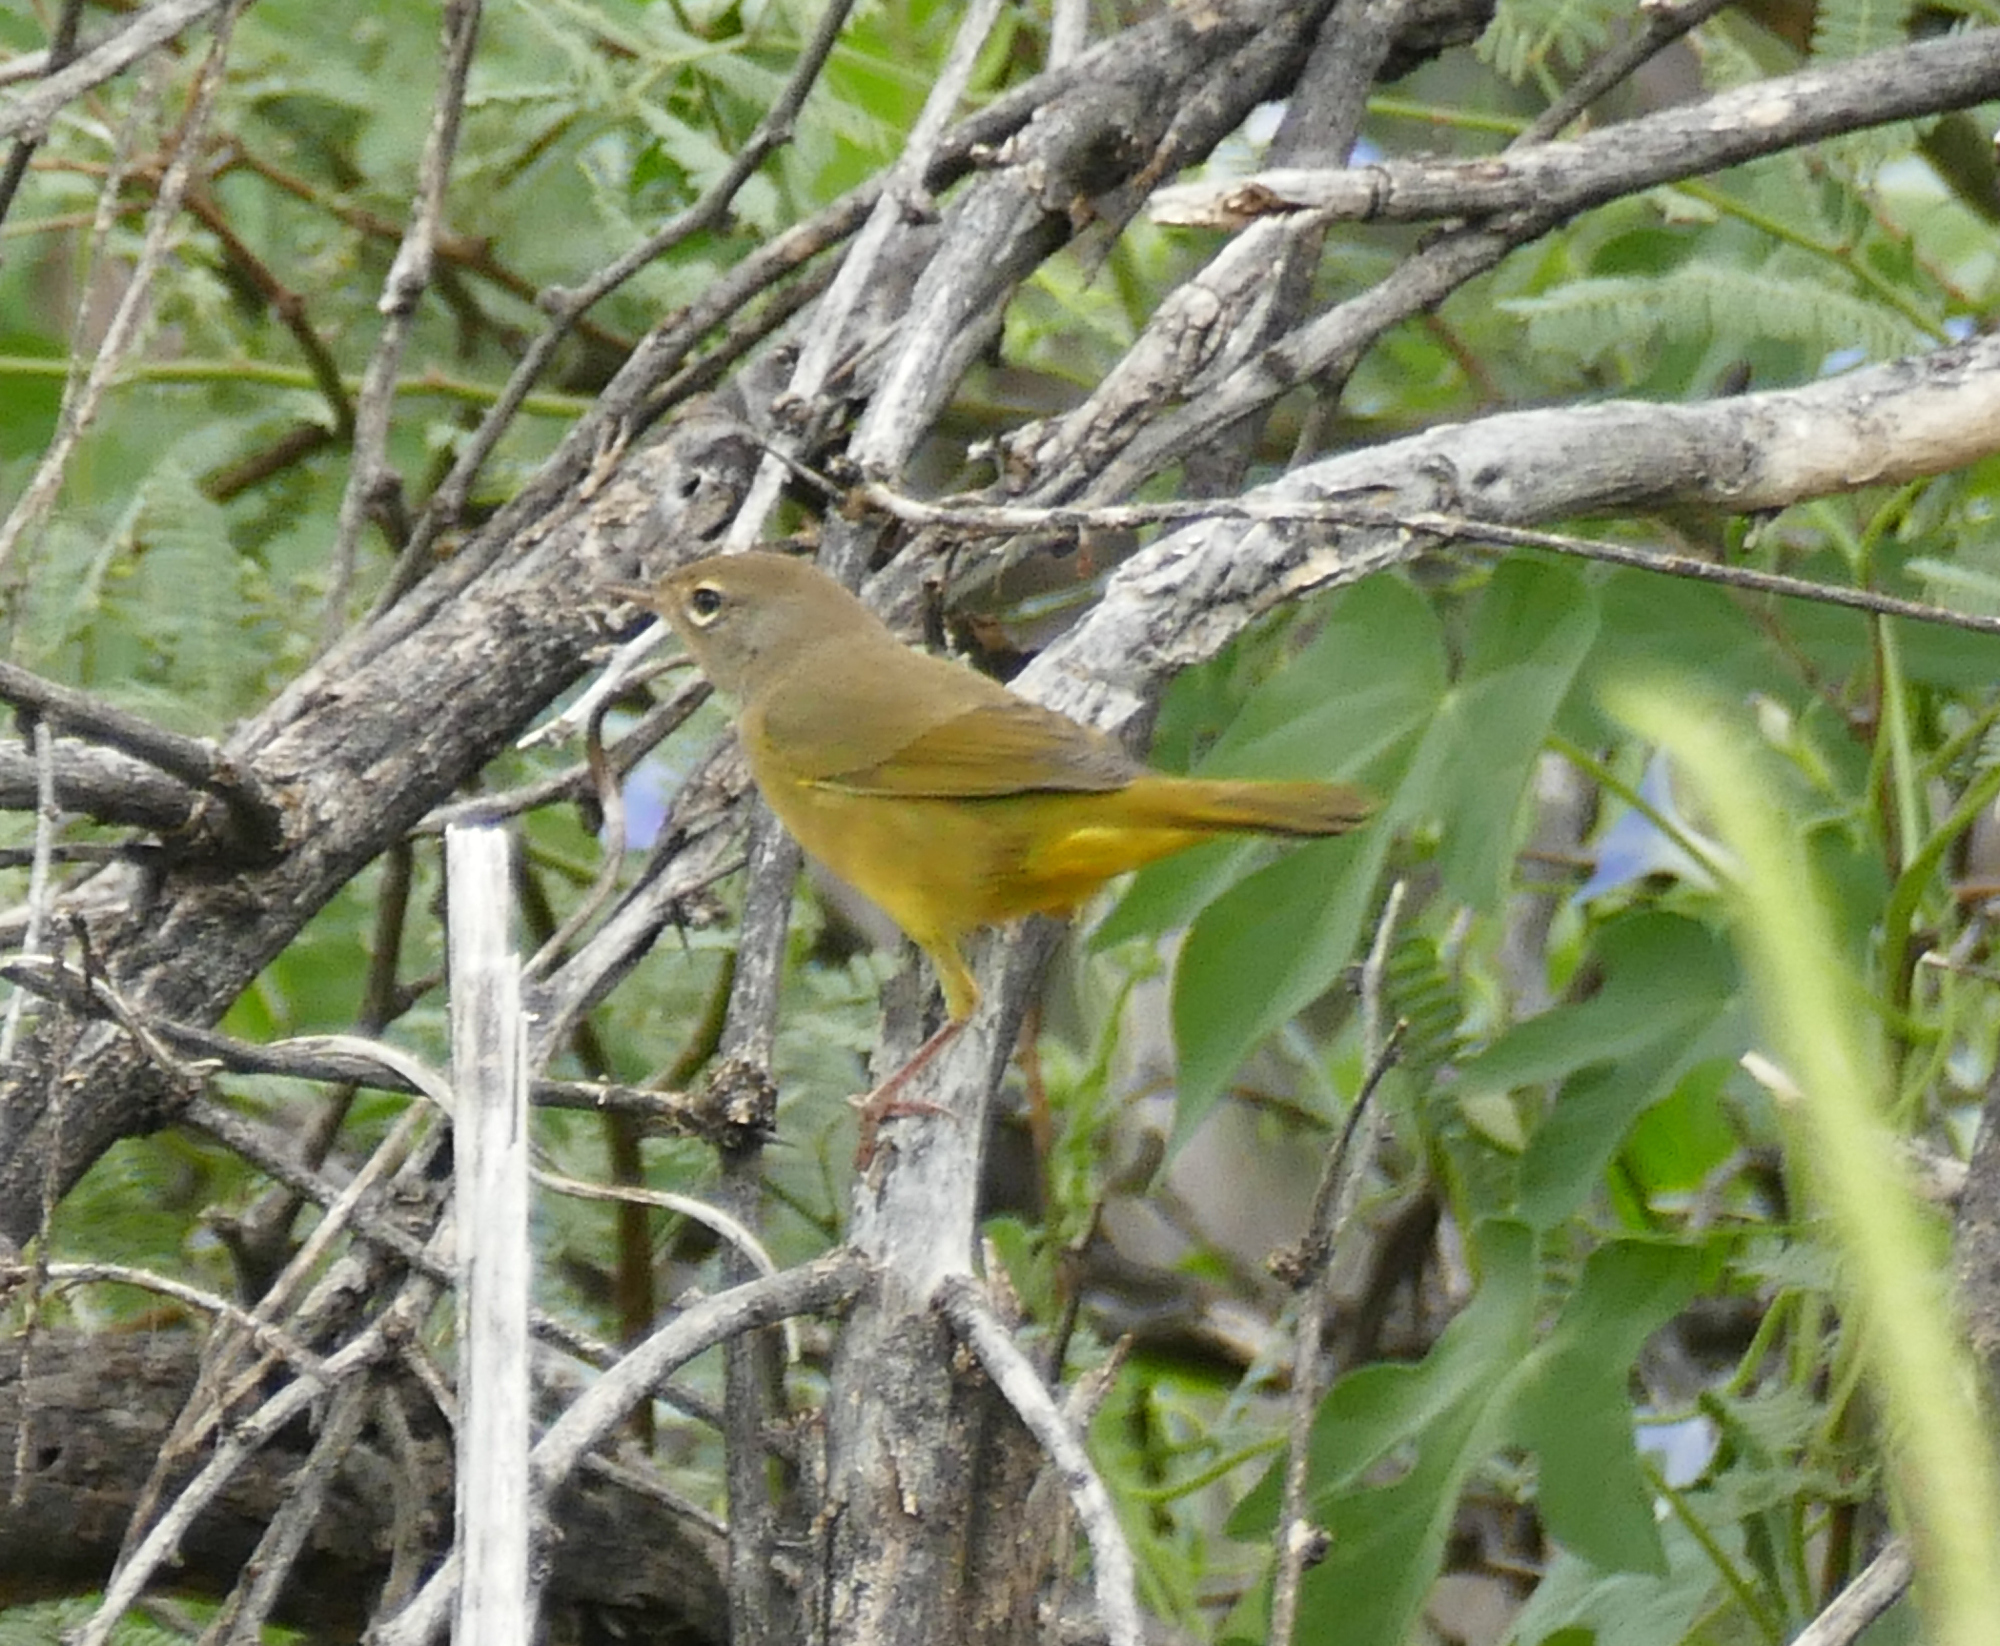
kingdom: Animalia
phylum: Chordata
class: Aves
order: Passeriformes
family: Parulidae
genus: Geothlypis
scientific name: Geothlypis tolmiei
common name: Macgillivray's warbler
